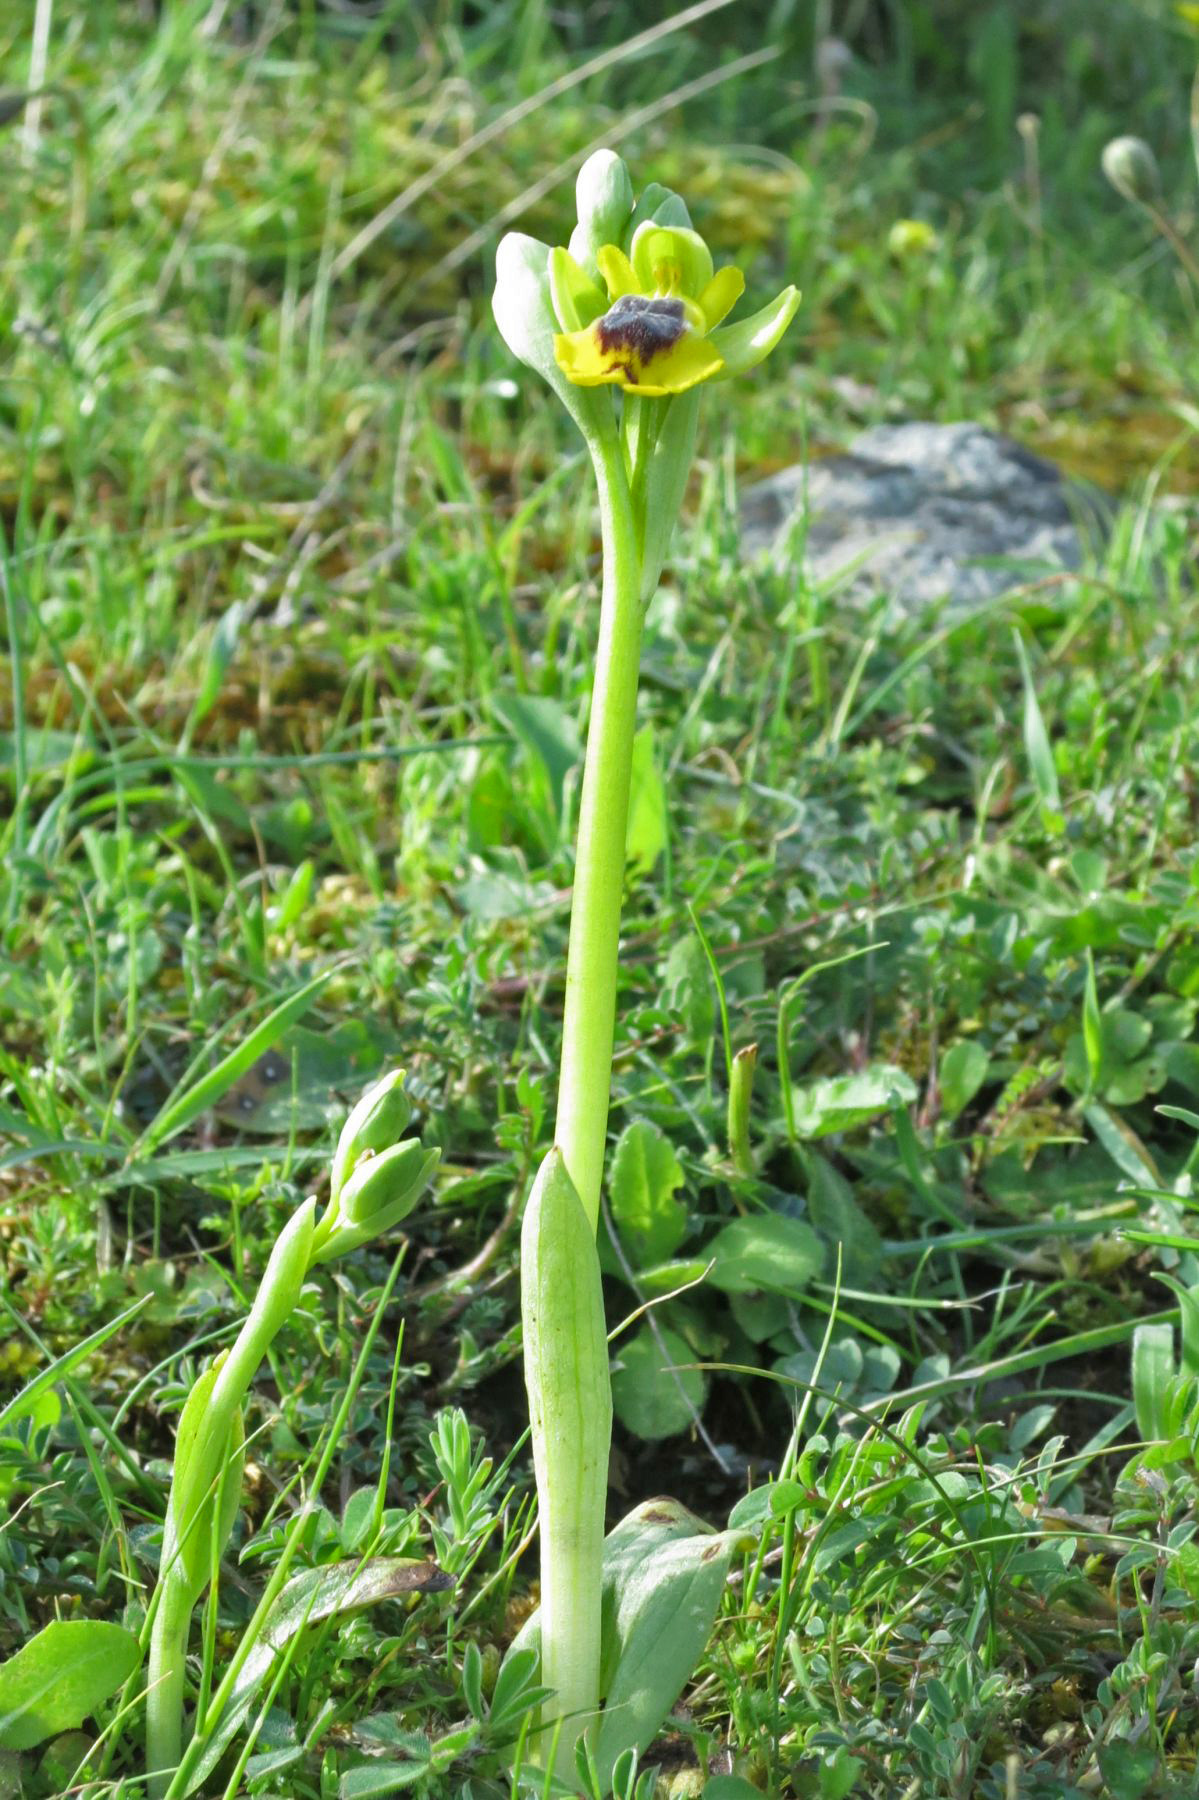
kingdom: Plantae
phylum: Tracheophyta
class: Liliopsida
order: Asparagales
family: Orchidaceae
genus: Ophrys
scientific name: Ophrys lutea
